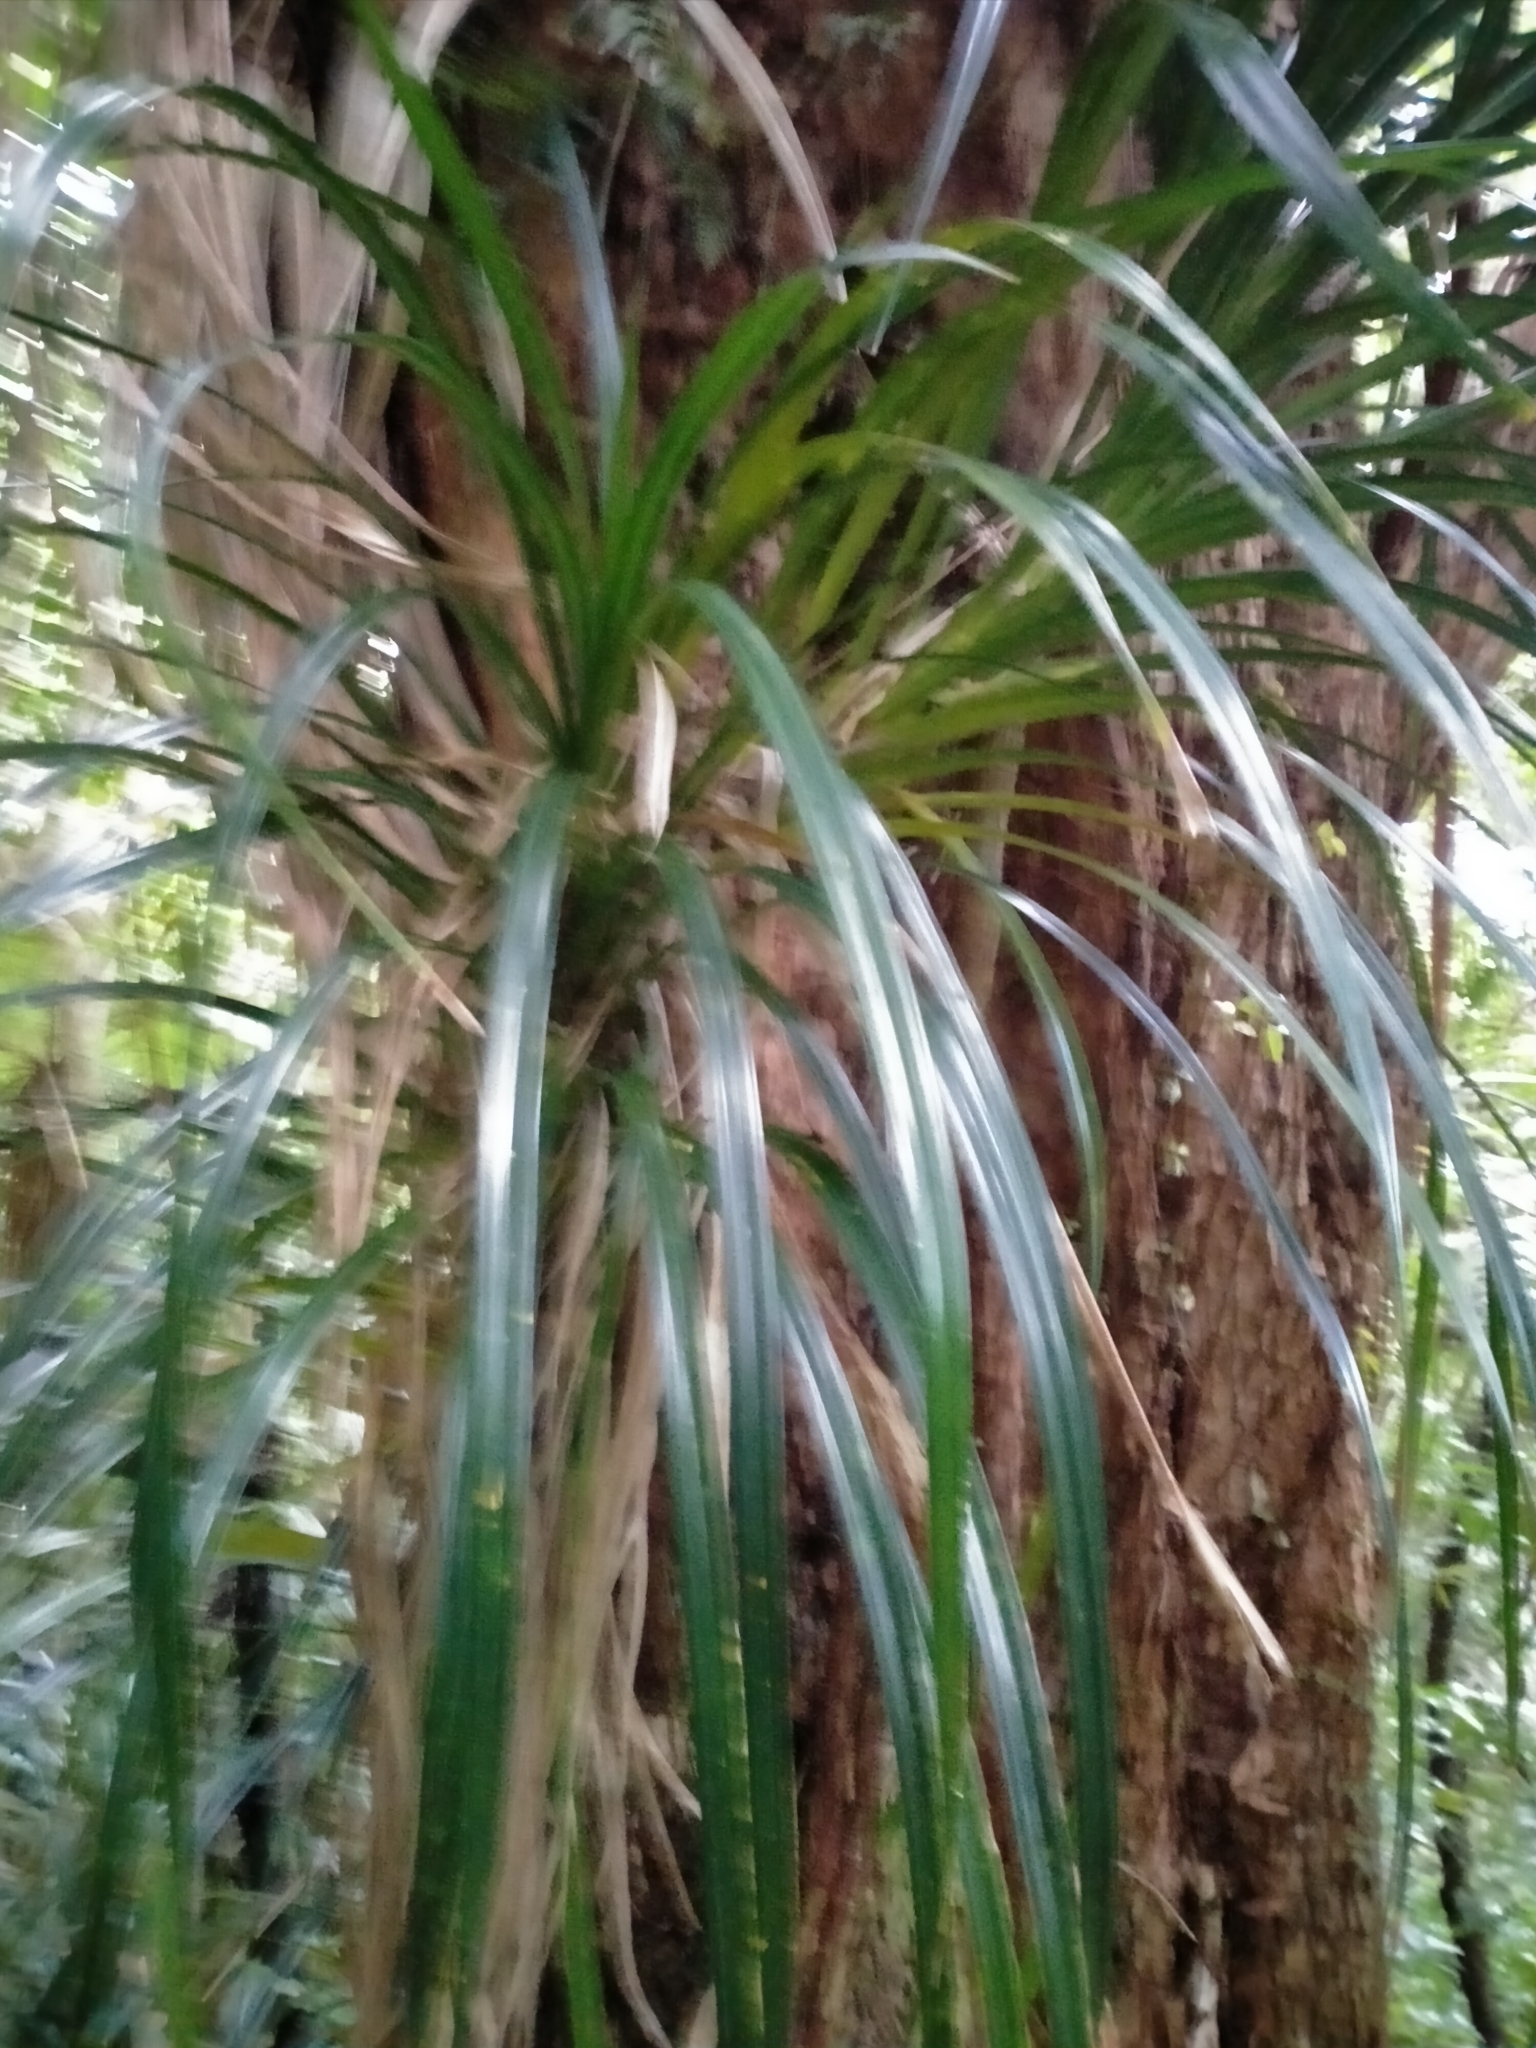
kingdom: Plantae
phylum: Tracheophyta
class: Liliopsida
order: Pandanales
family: Pandanaceae
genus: Freycinetia
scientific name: Freycinetia banksii
